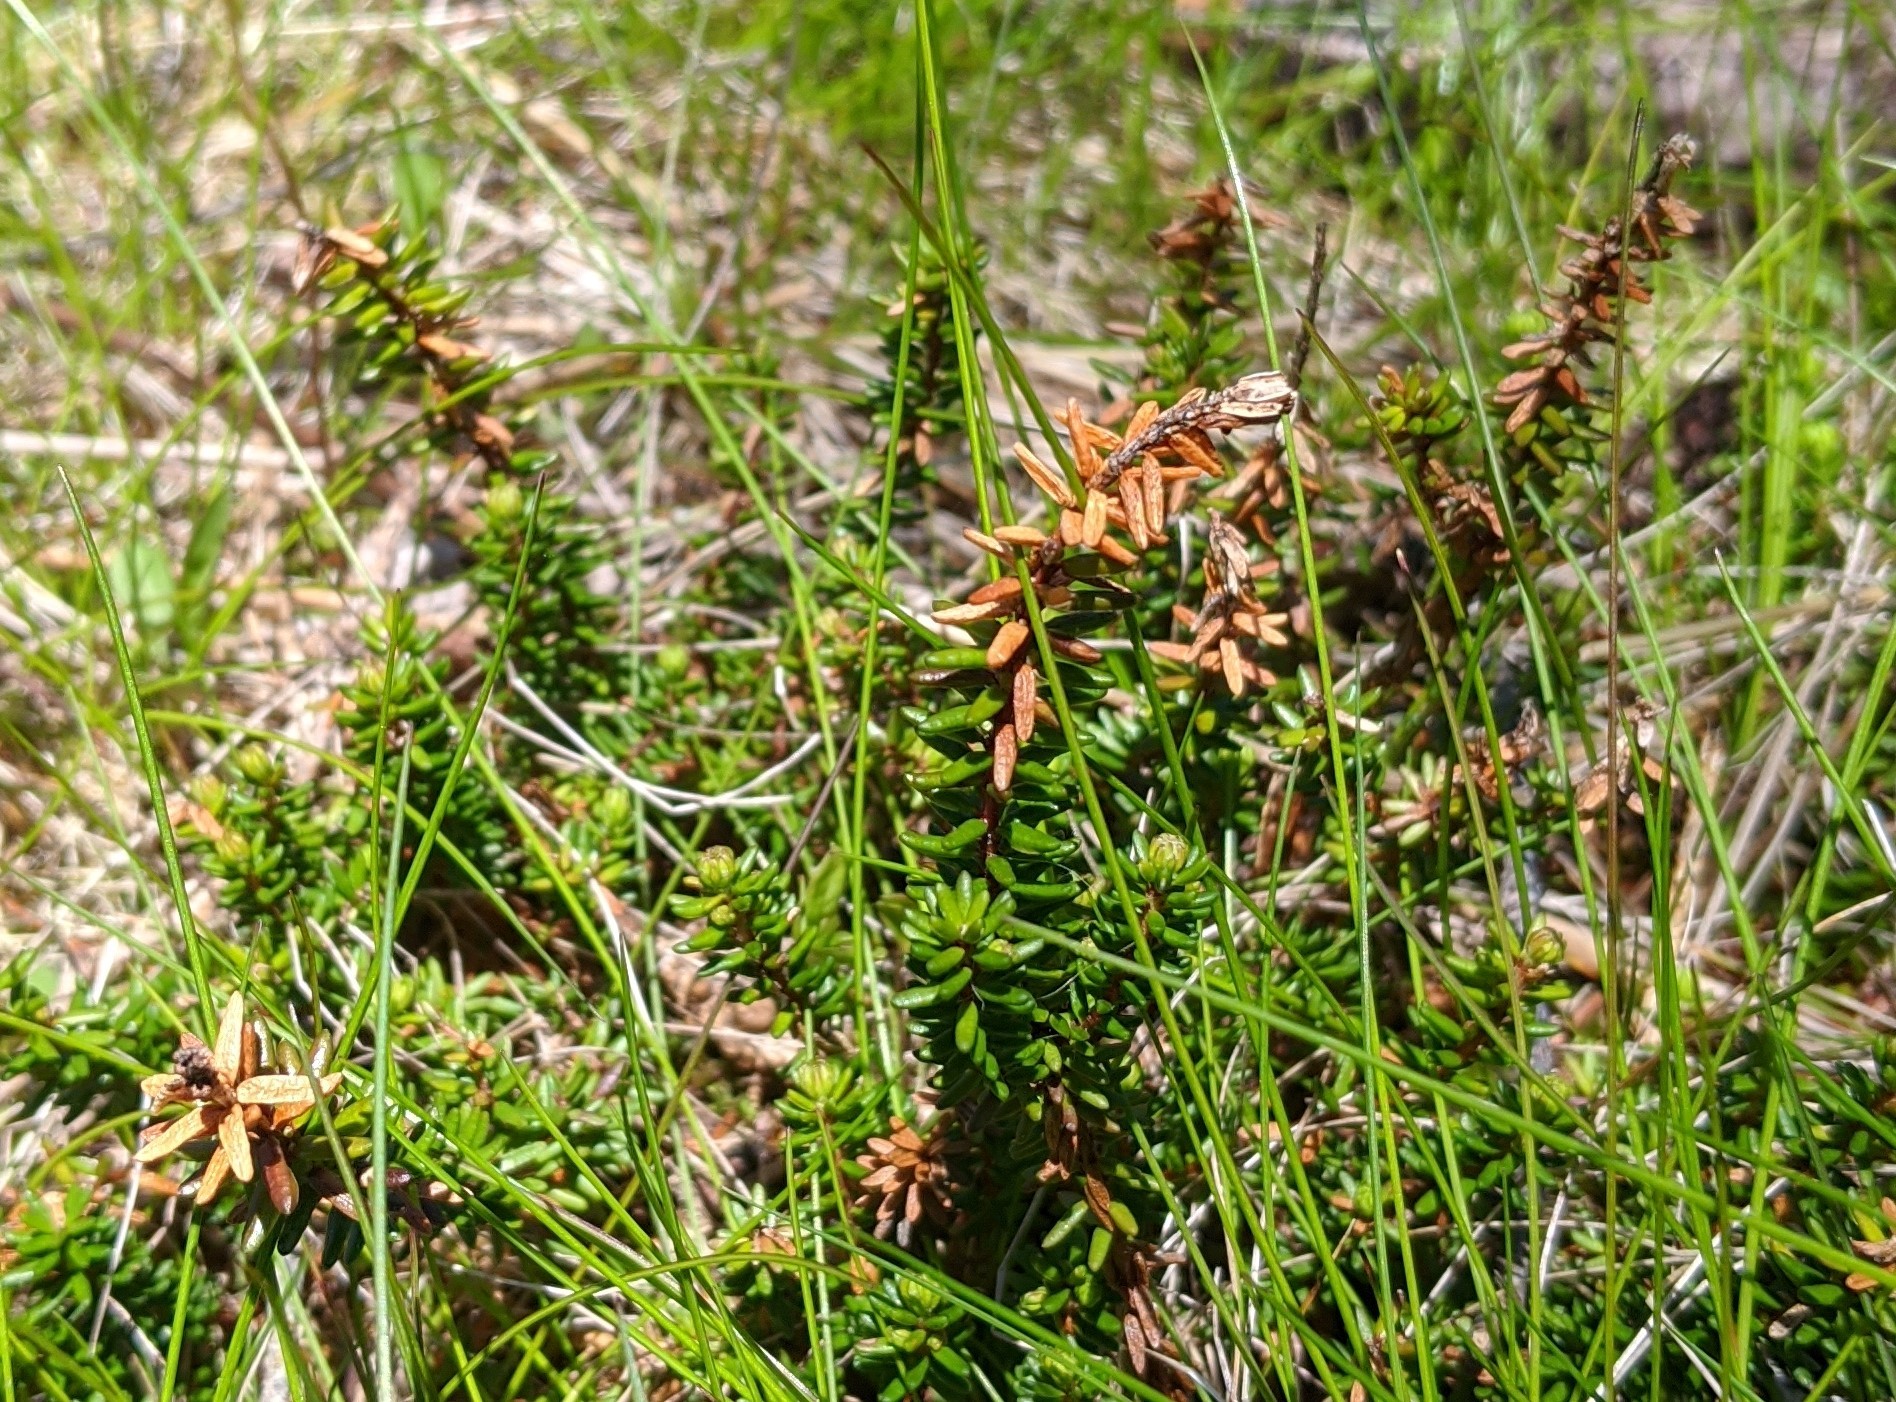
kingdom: Plantae
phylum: Tracheophyta
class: Magnoliopsida
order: Ericales
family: Ericaceae
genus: Empetrum
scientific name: Empetrum nigrum
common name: Black crowberry
